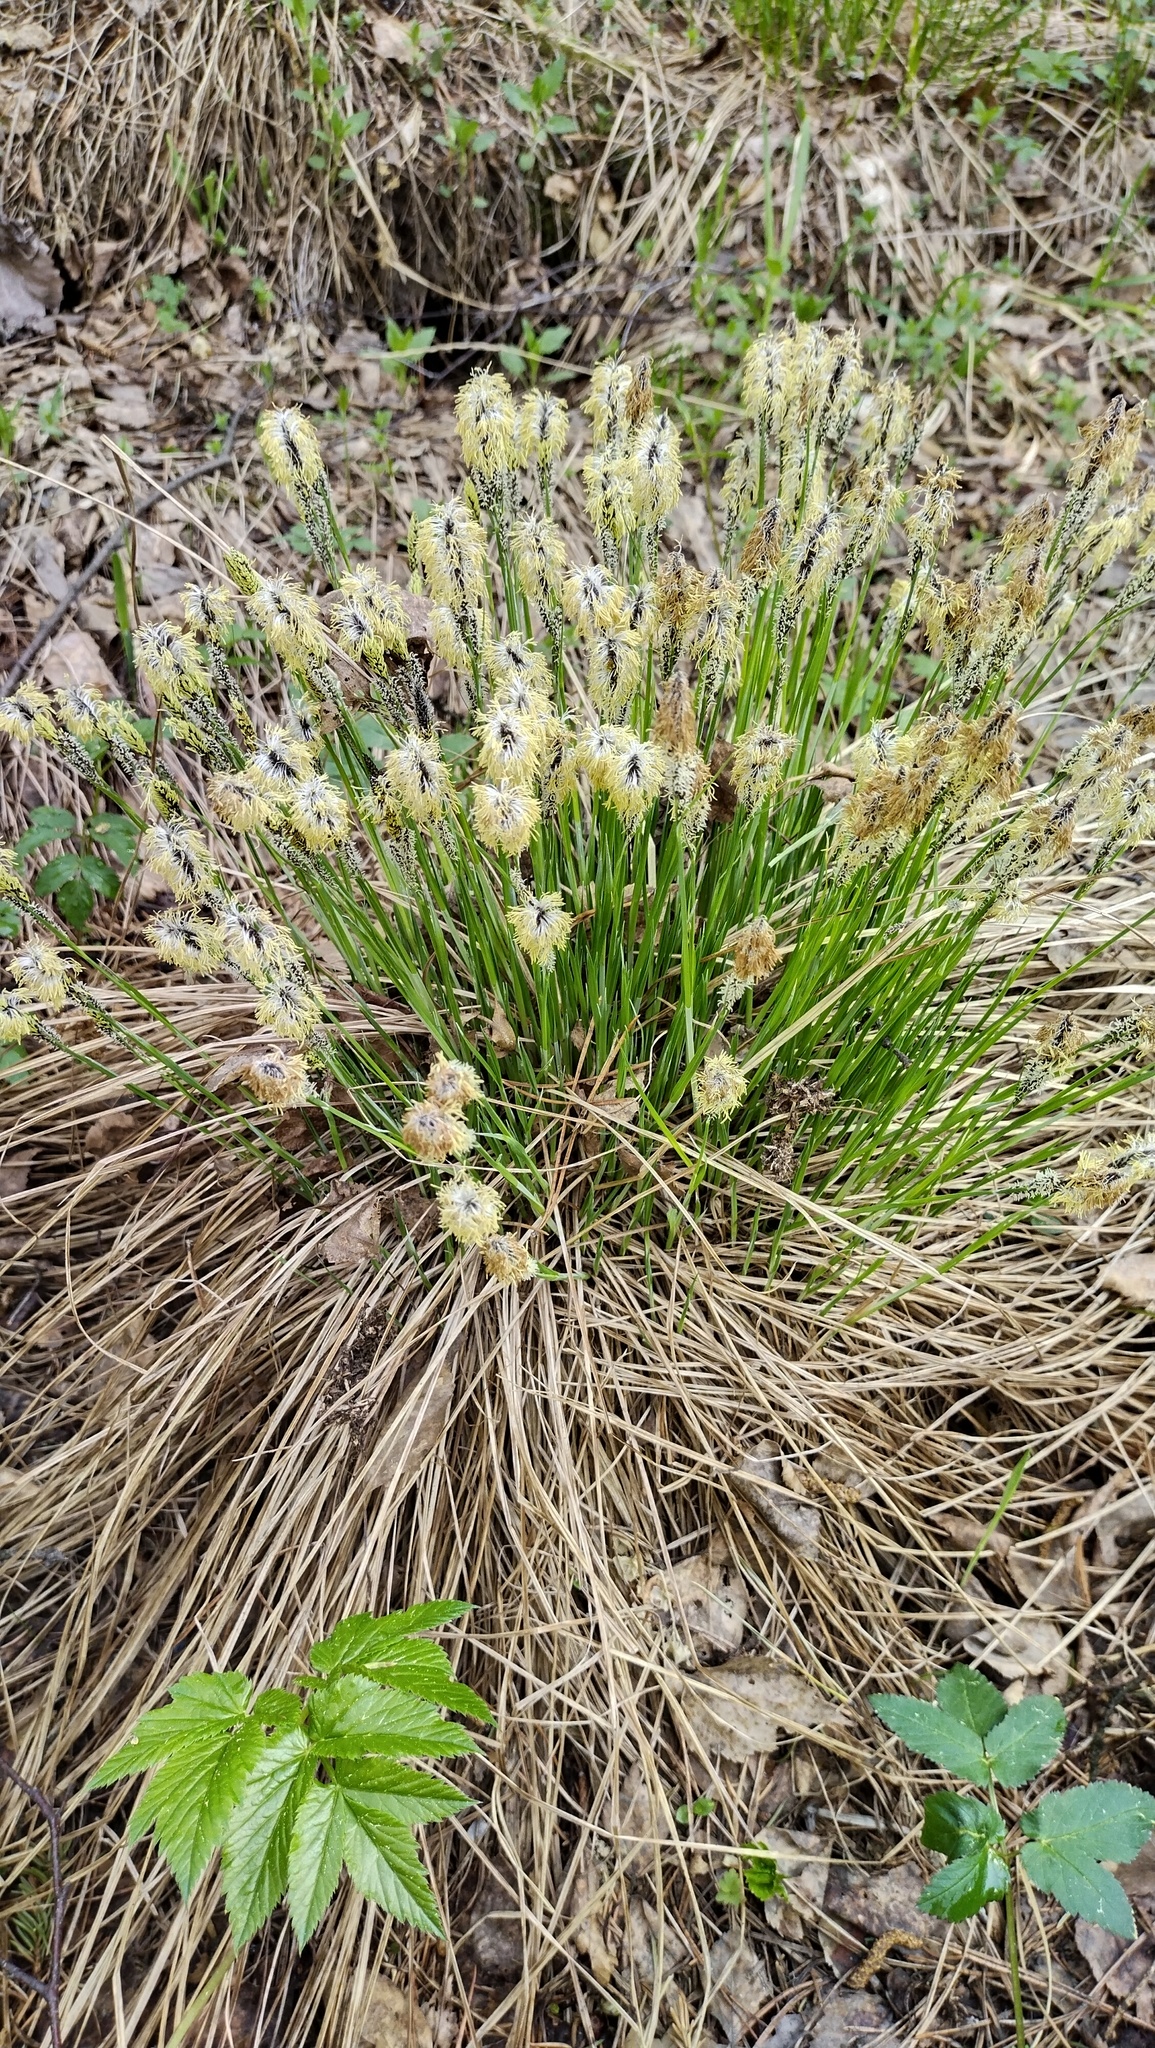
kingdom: Plantae
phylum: Tracheophyta
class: Liliopsida
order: Poales
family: Cyperaceae
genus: Carex
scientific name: Carex cespitosa
